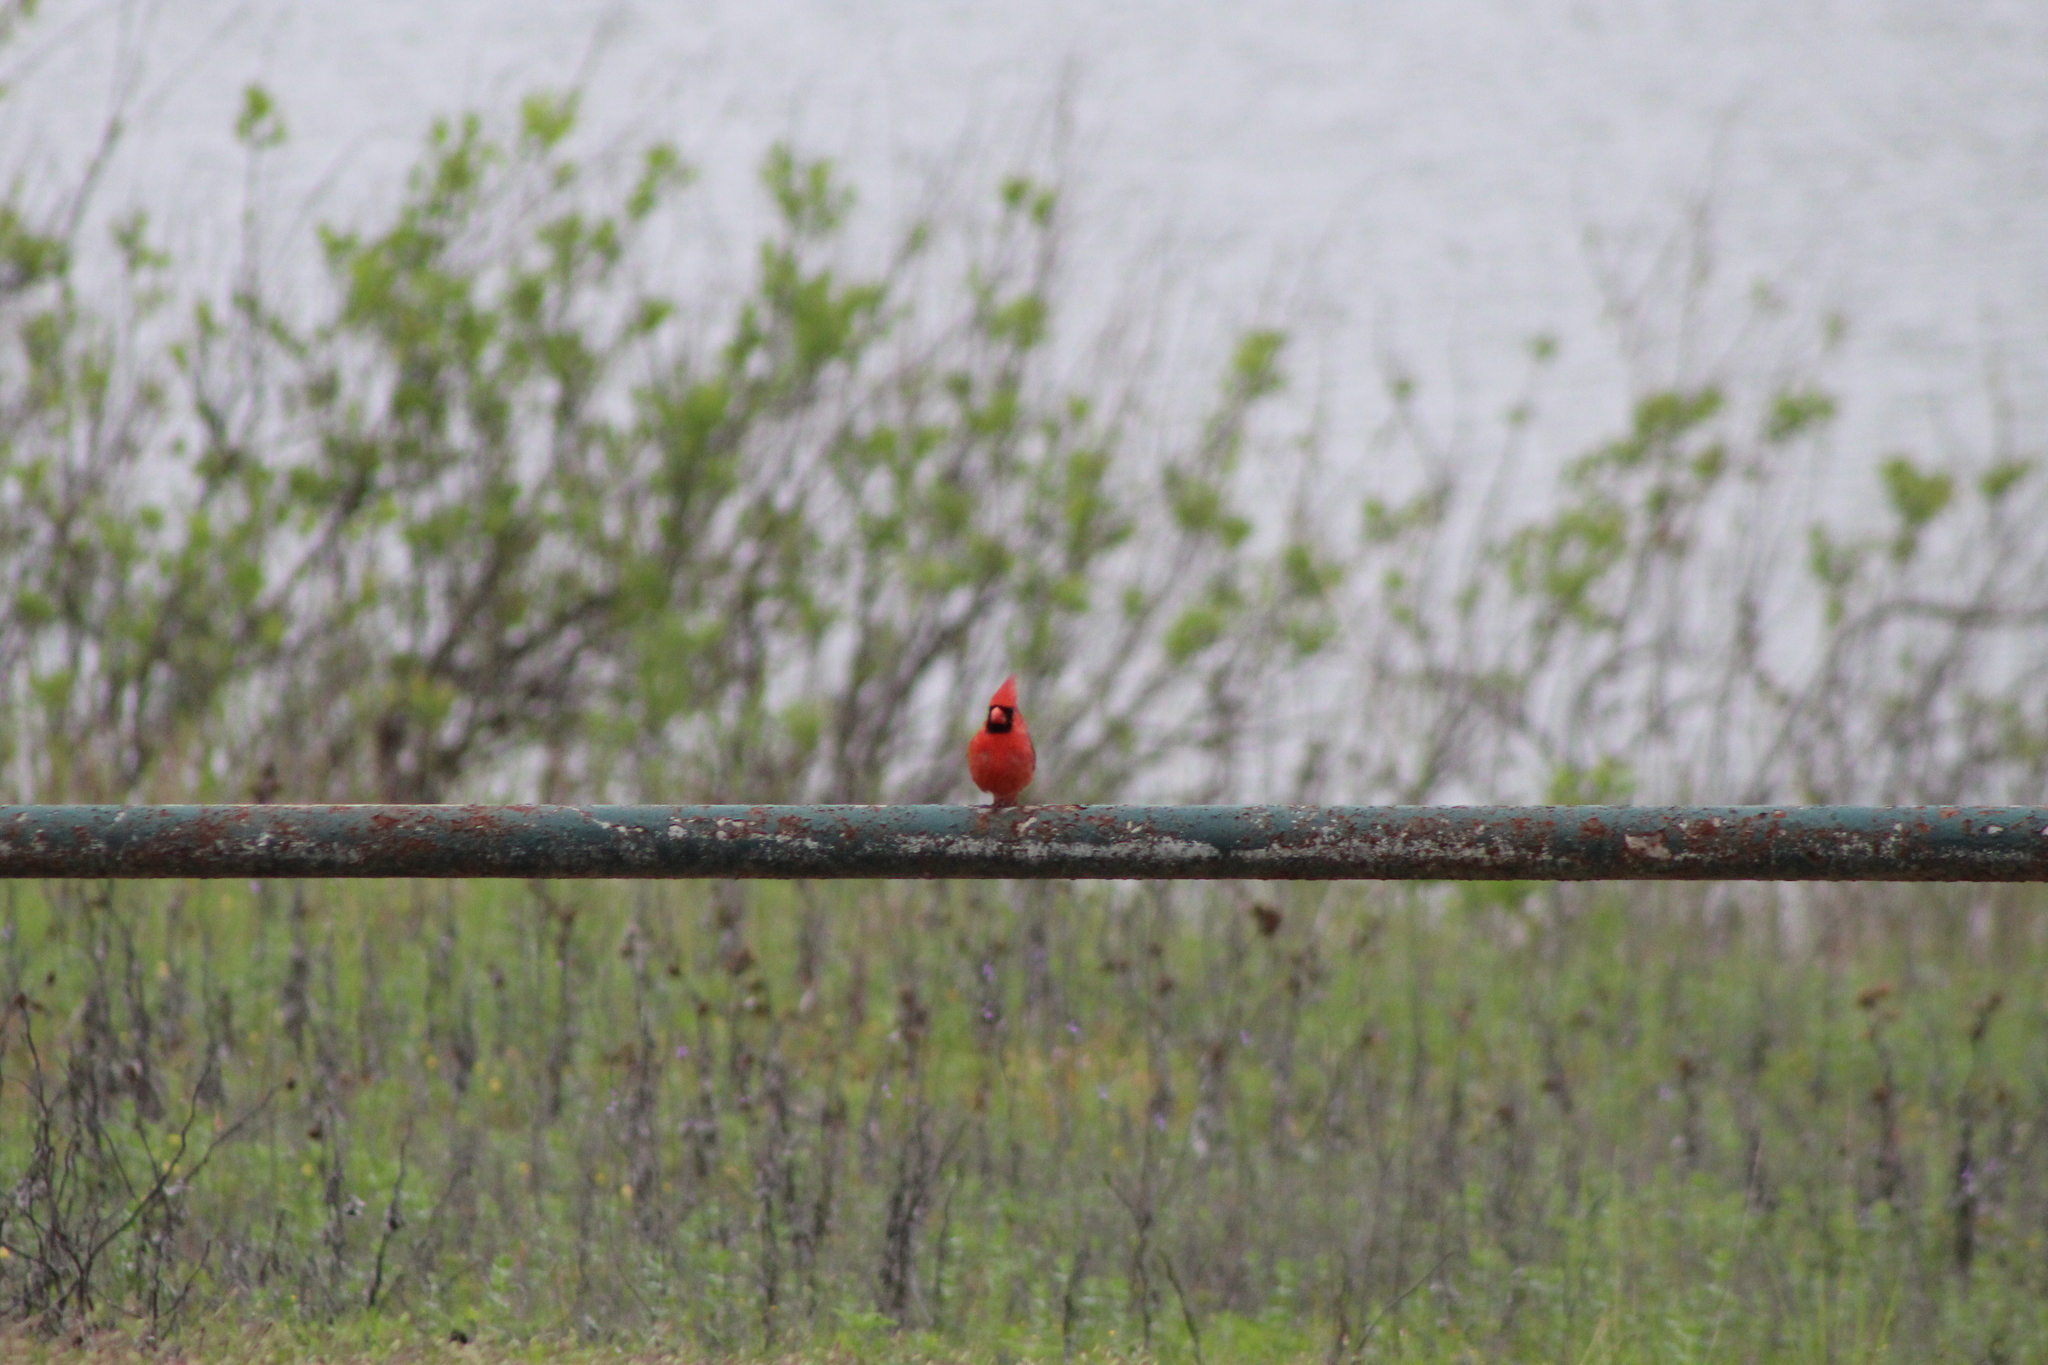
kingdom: Animalia
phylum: Chordata
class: Aves
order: Passeriformes
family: Cardinalidae
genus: Cardinalis
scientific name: Cardinalis cardinalis
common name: Northern cardinal
